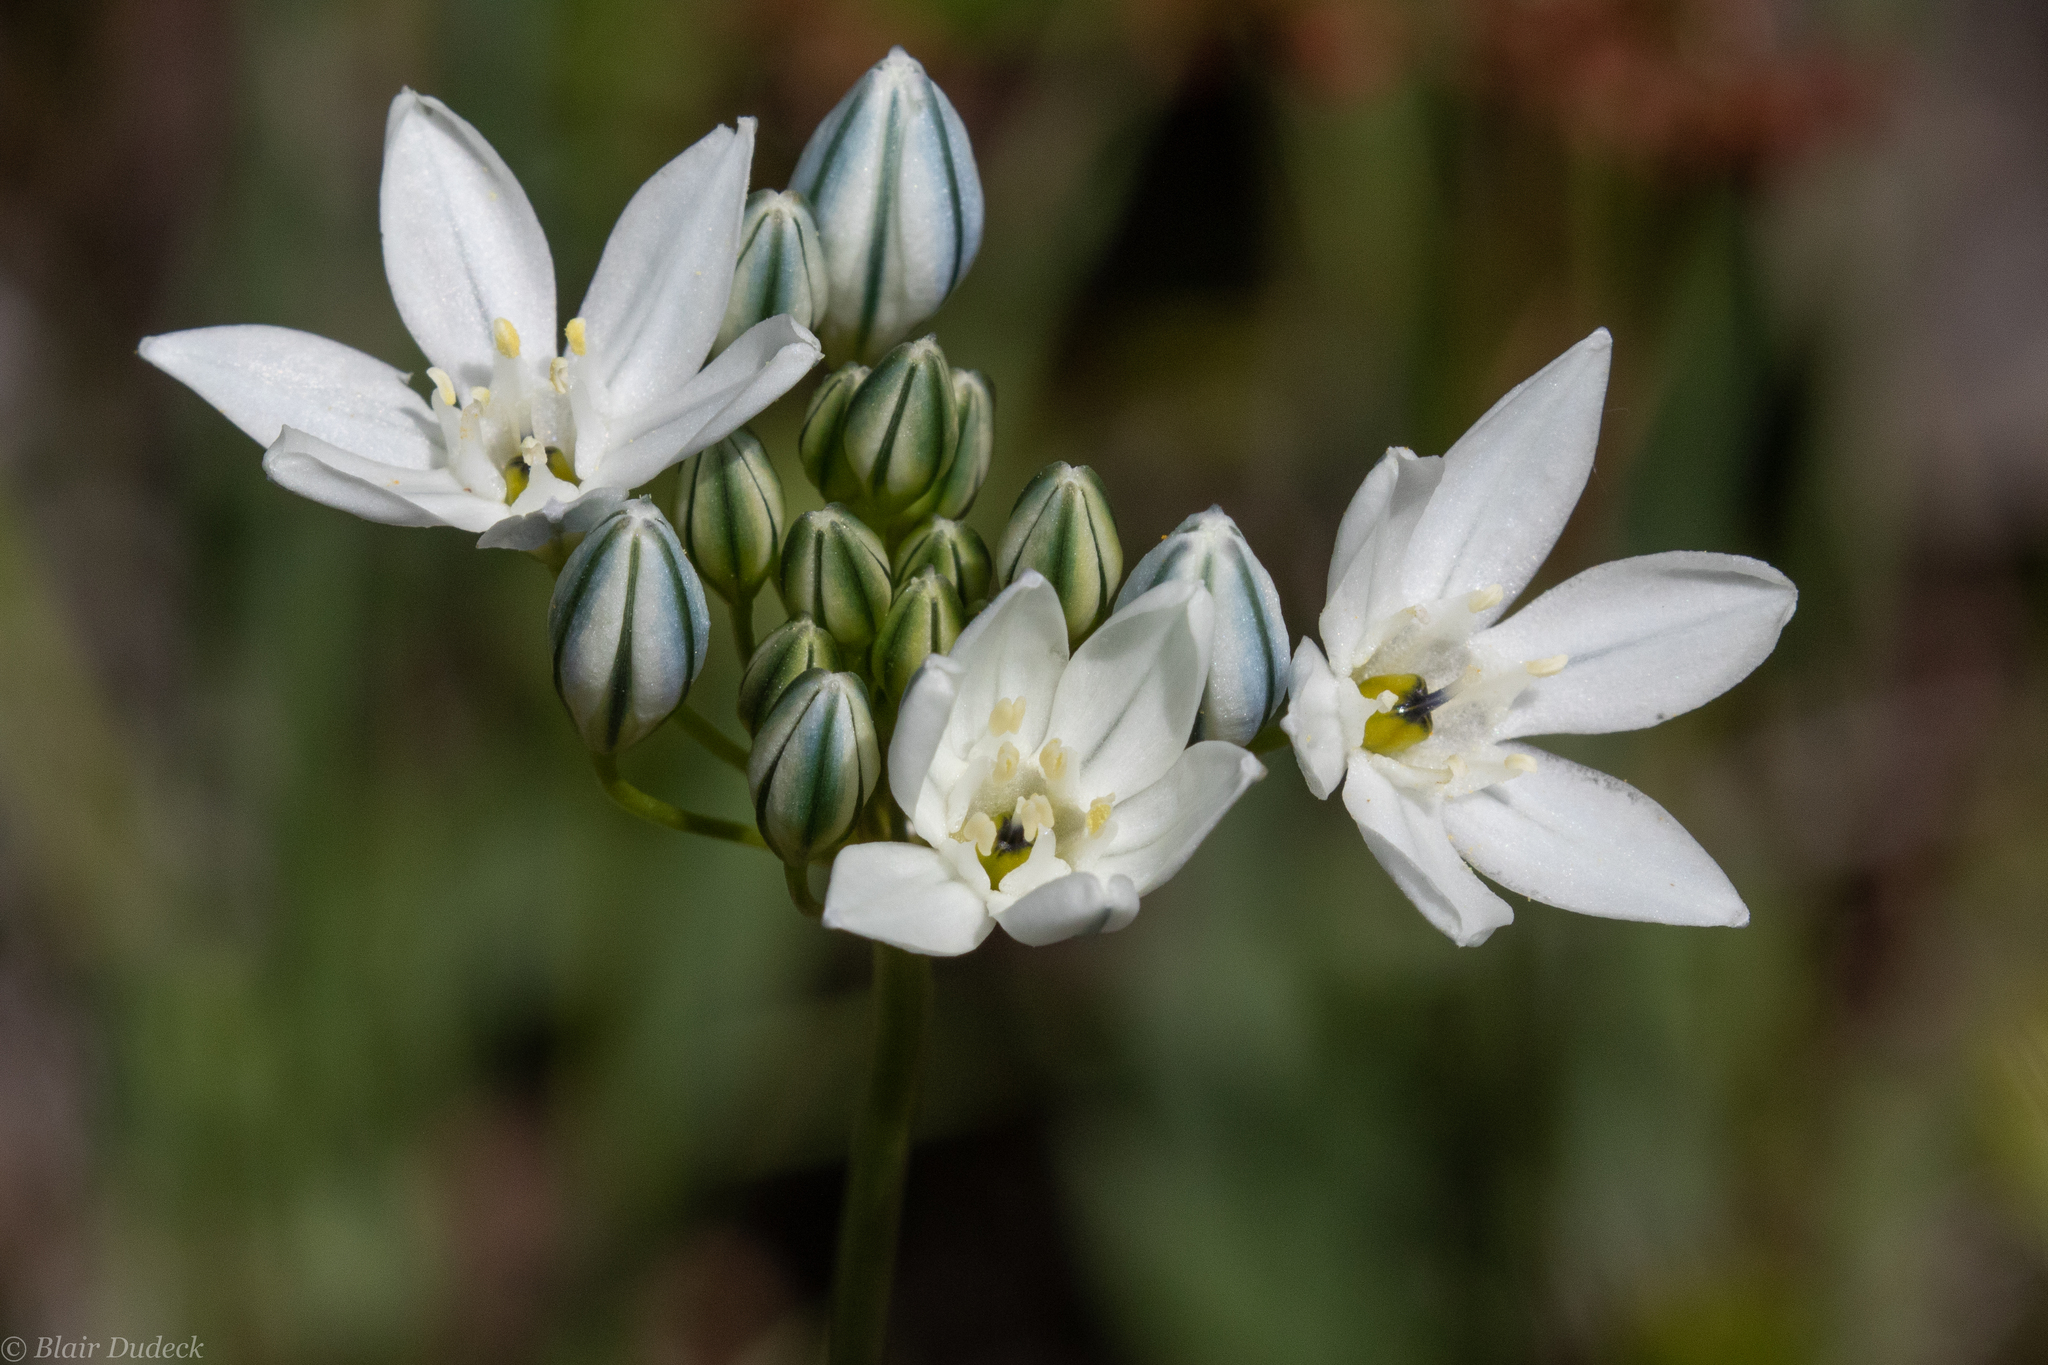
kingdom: Plantae
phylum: Tracheophyta
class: Liliopsida
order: Asparagales
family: Asparagaceae
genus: Triteleia
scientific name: Triteleia hyacinthina
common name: White brodiaea
